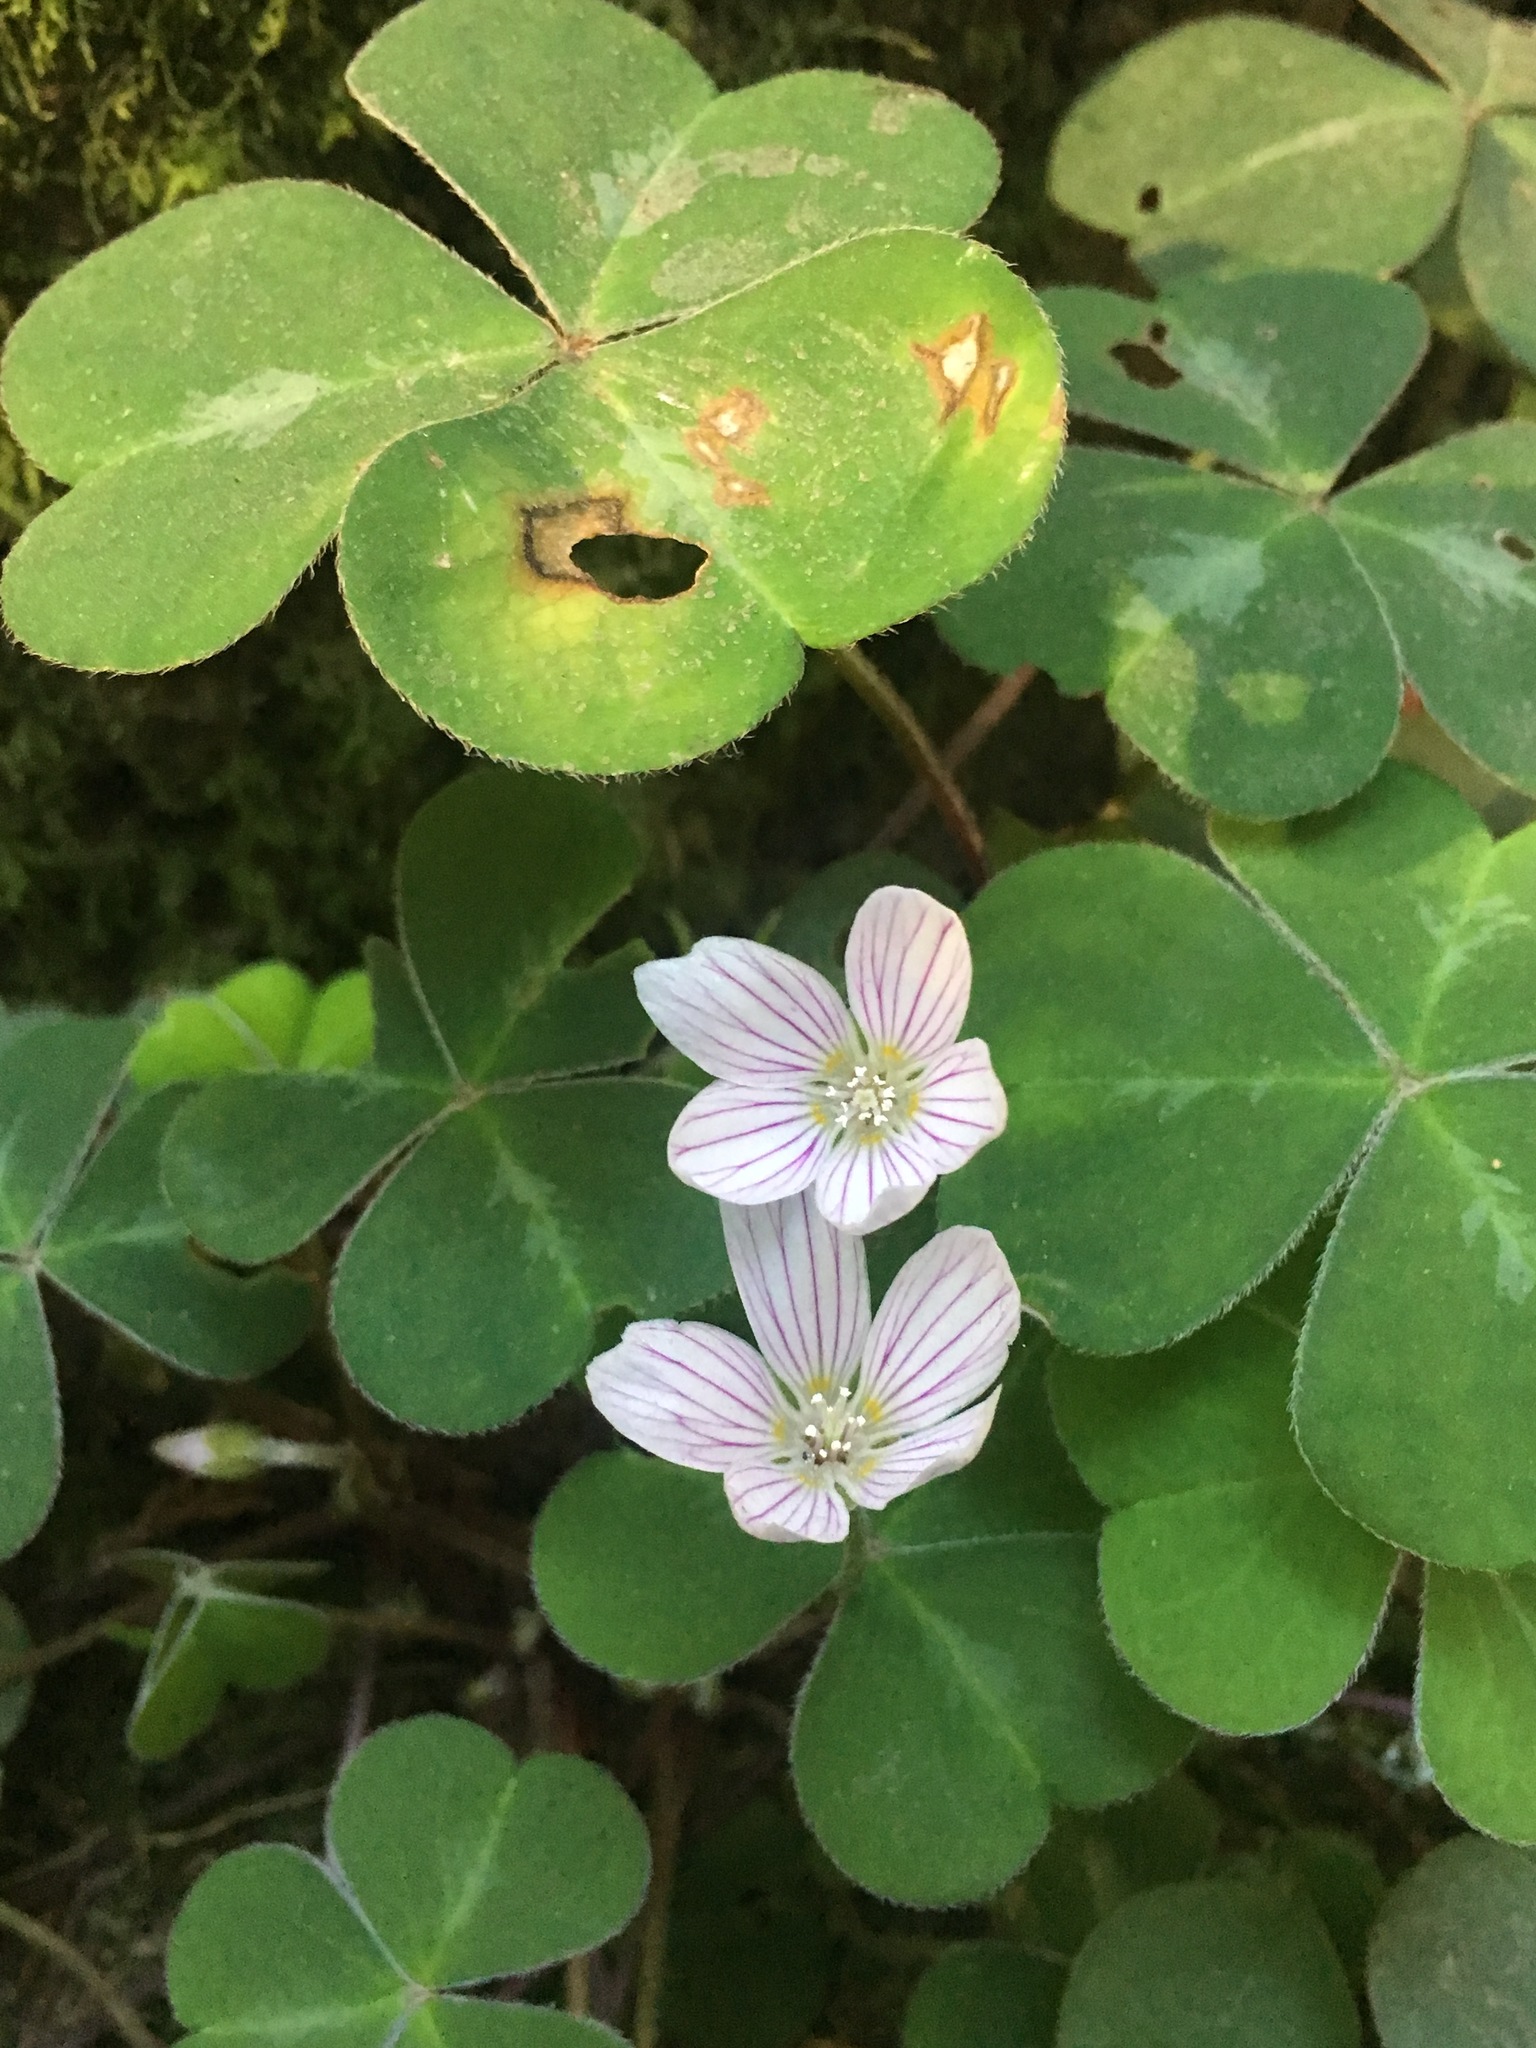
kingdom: Plantae
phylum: Tracheophyta
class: Magnoliopsida
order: Oxalidales
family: Oxalidaceae
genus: Oxalis
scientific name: Oxalis oregana
